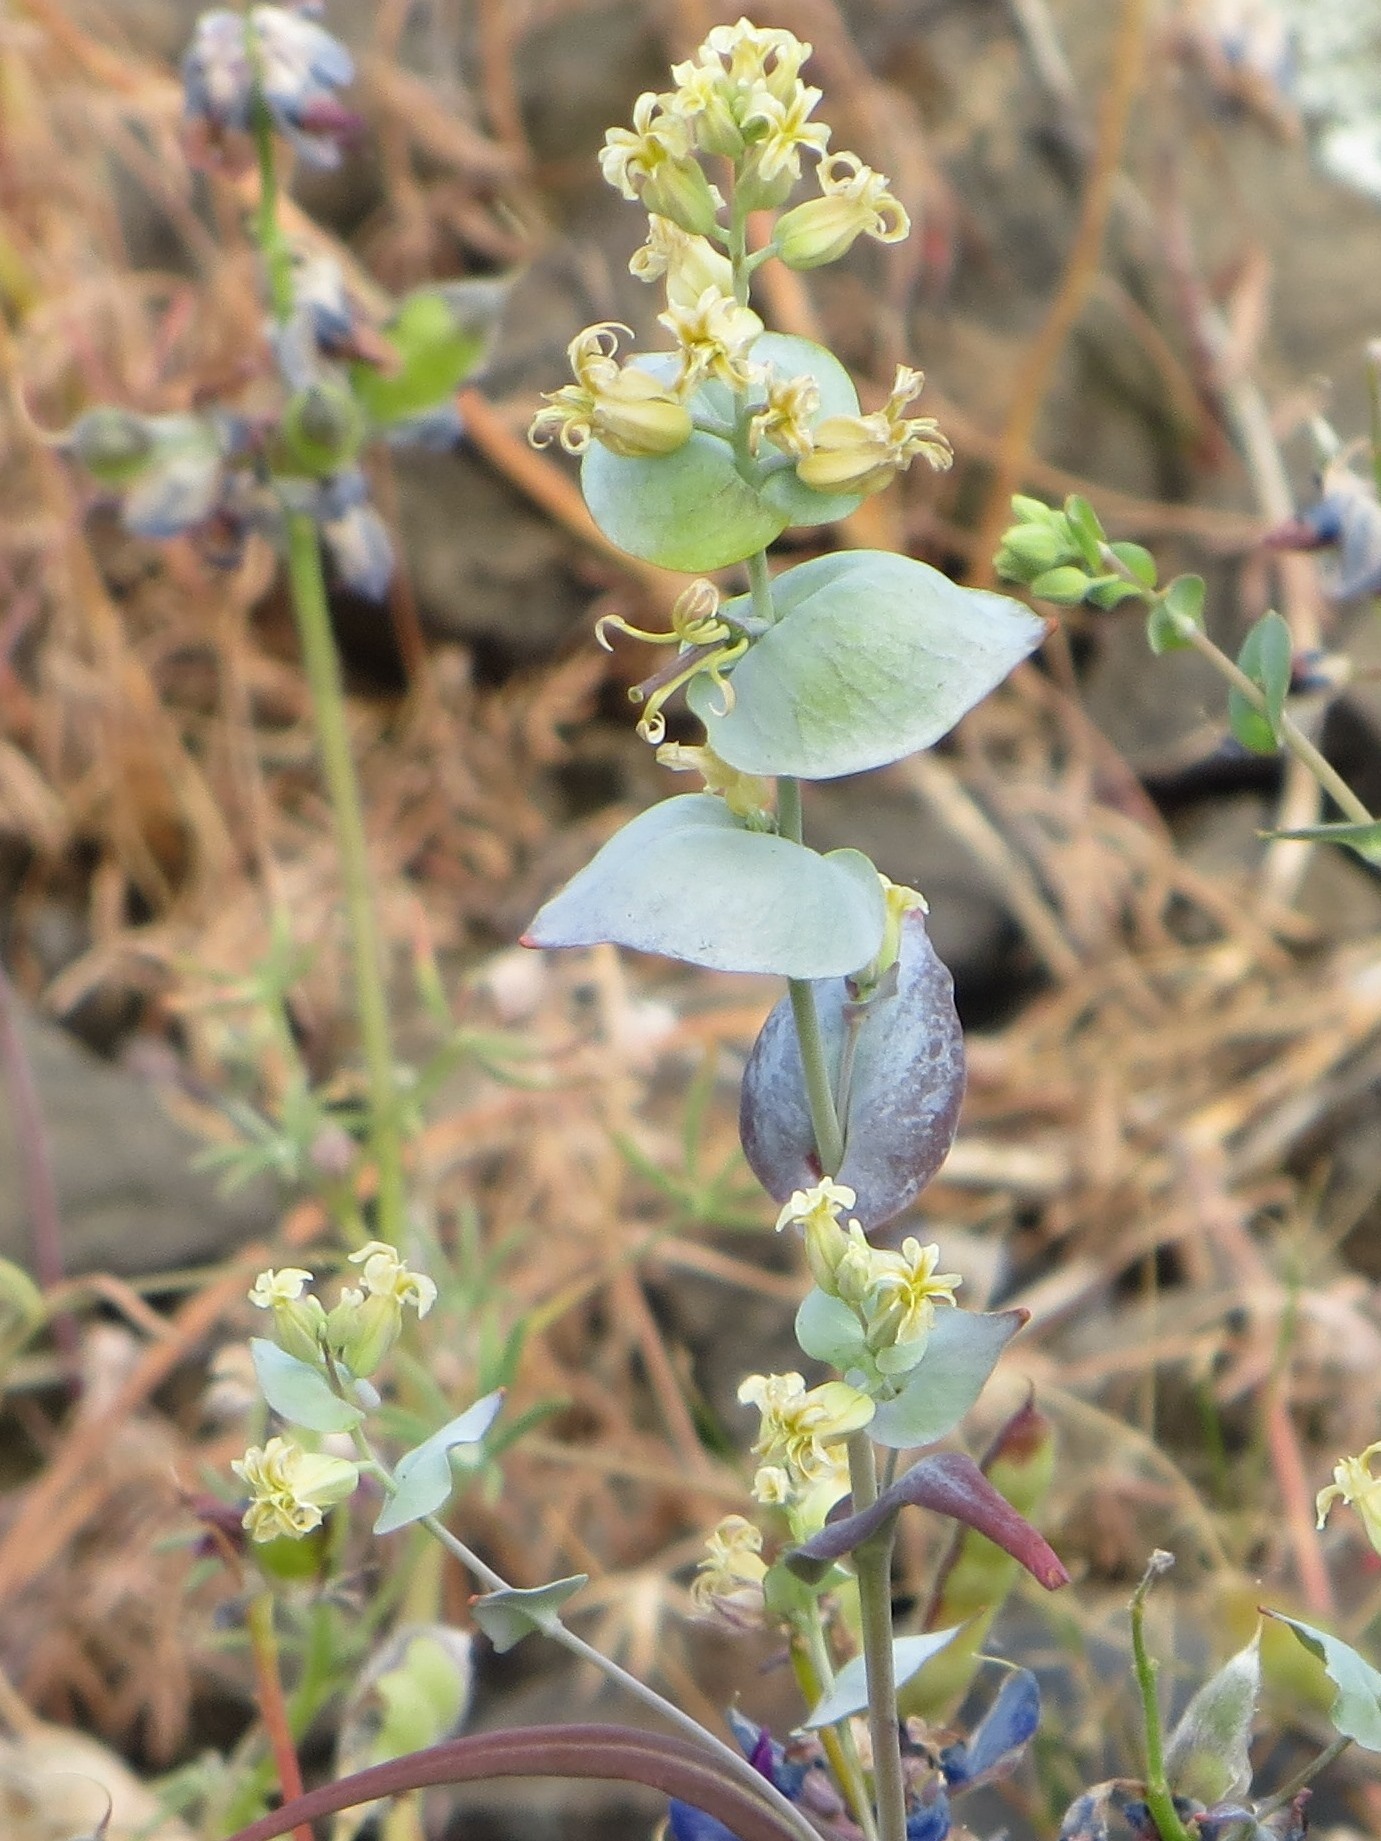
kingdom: Plantae
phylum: Tracheophyta
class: Magnoliopsida
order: Brassicales
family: Brassicaceae
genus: Streptanthus
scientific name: Streptanthus diversifolius
